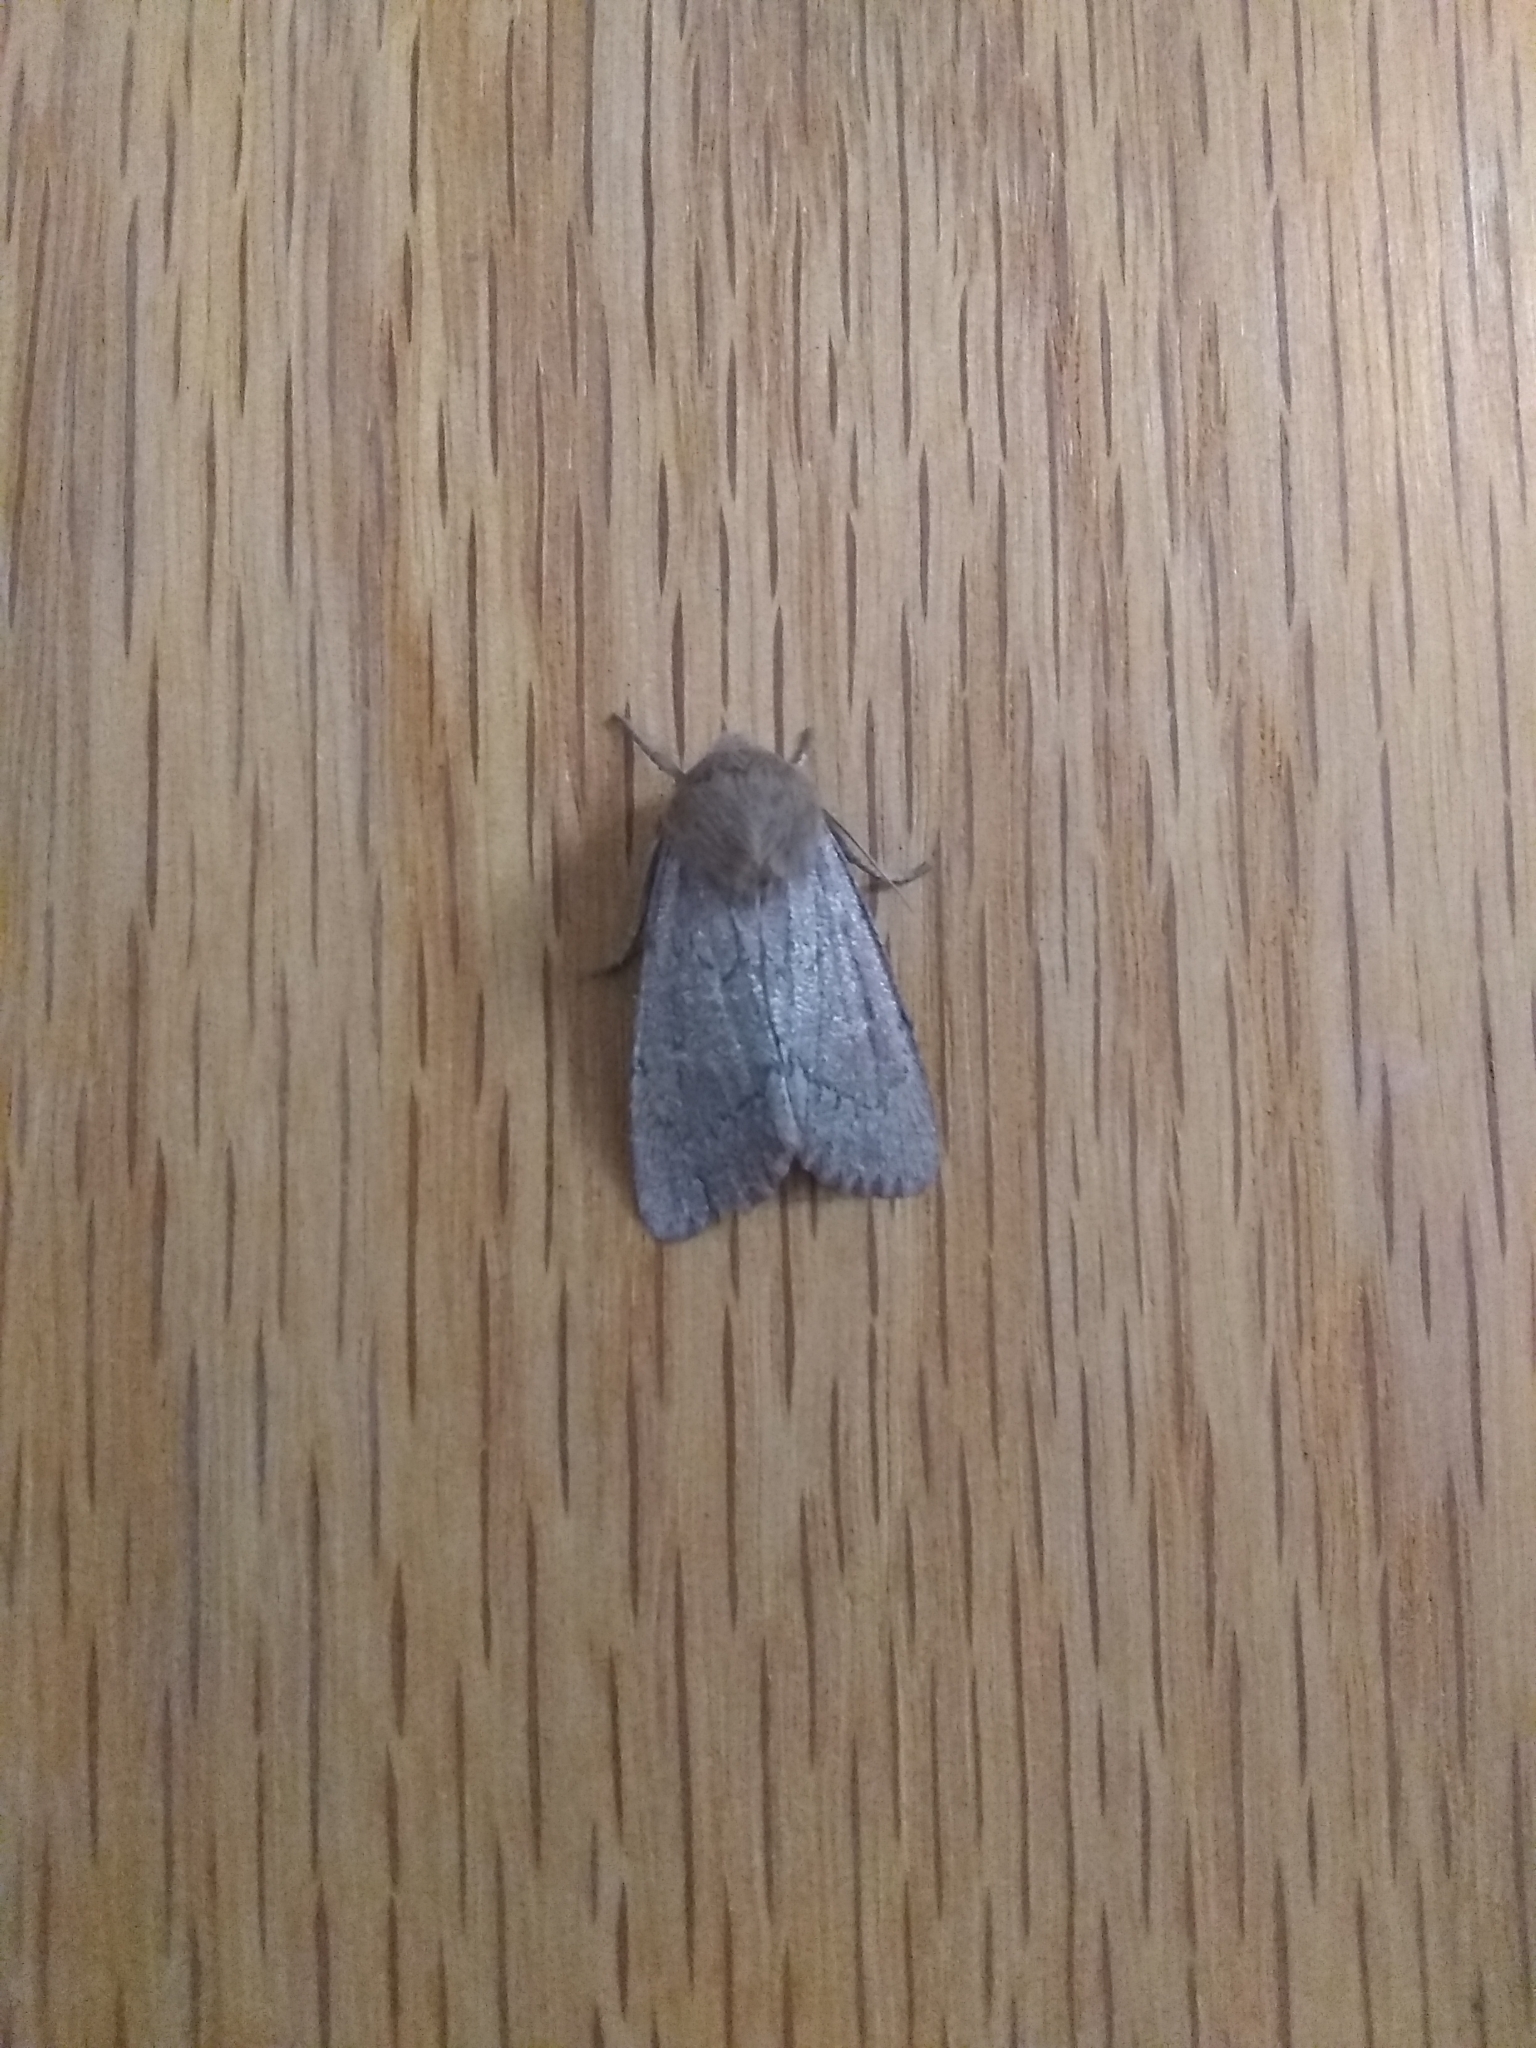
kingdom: Animalia
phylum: Arthropoda
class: Insecta
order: Lepidoptera
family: Noctuidae
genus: Ufeus
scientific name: Ufeus satyricus
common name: Brown satyr moth
